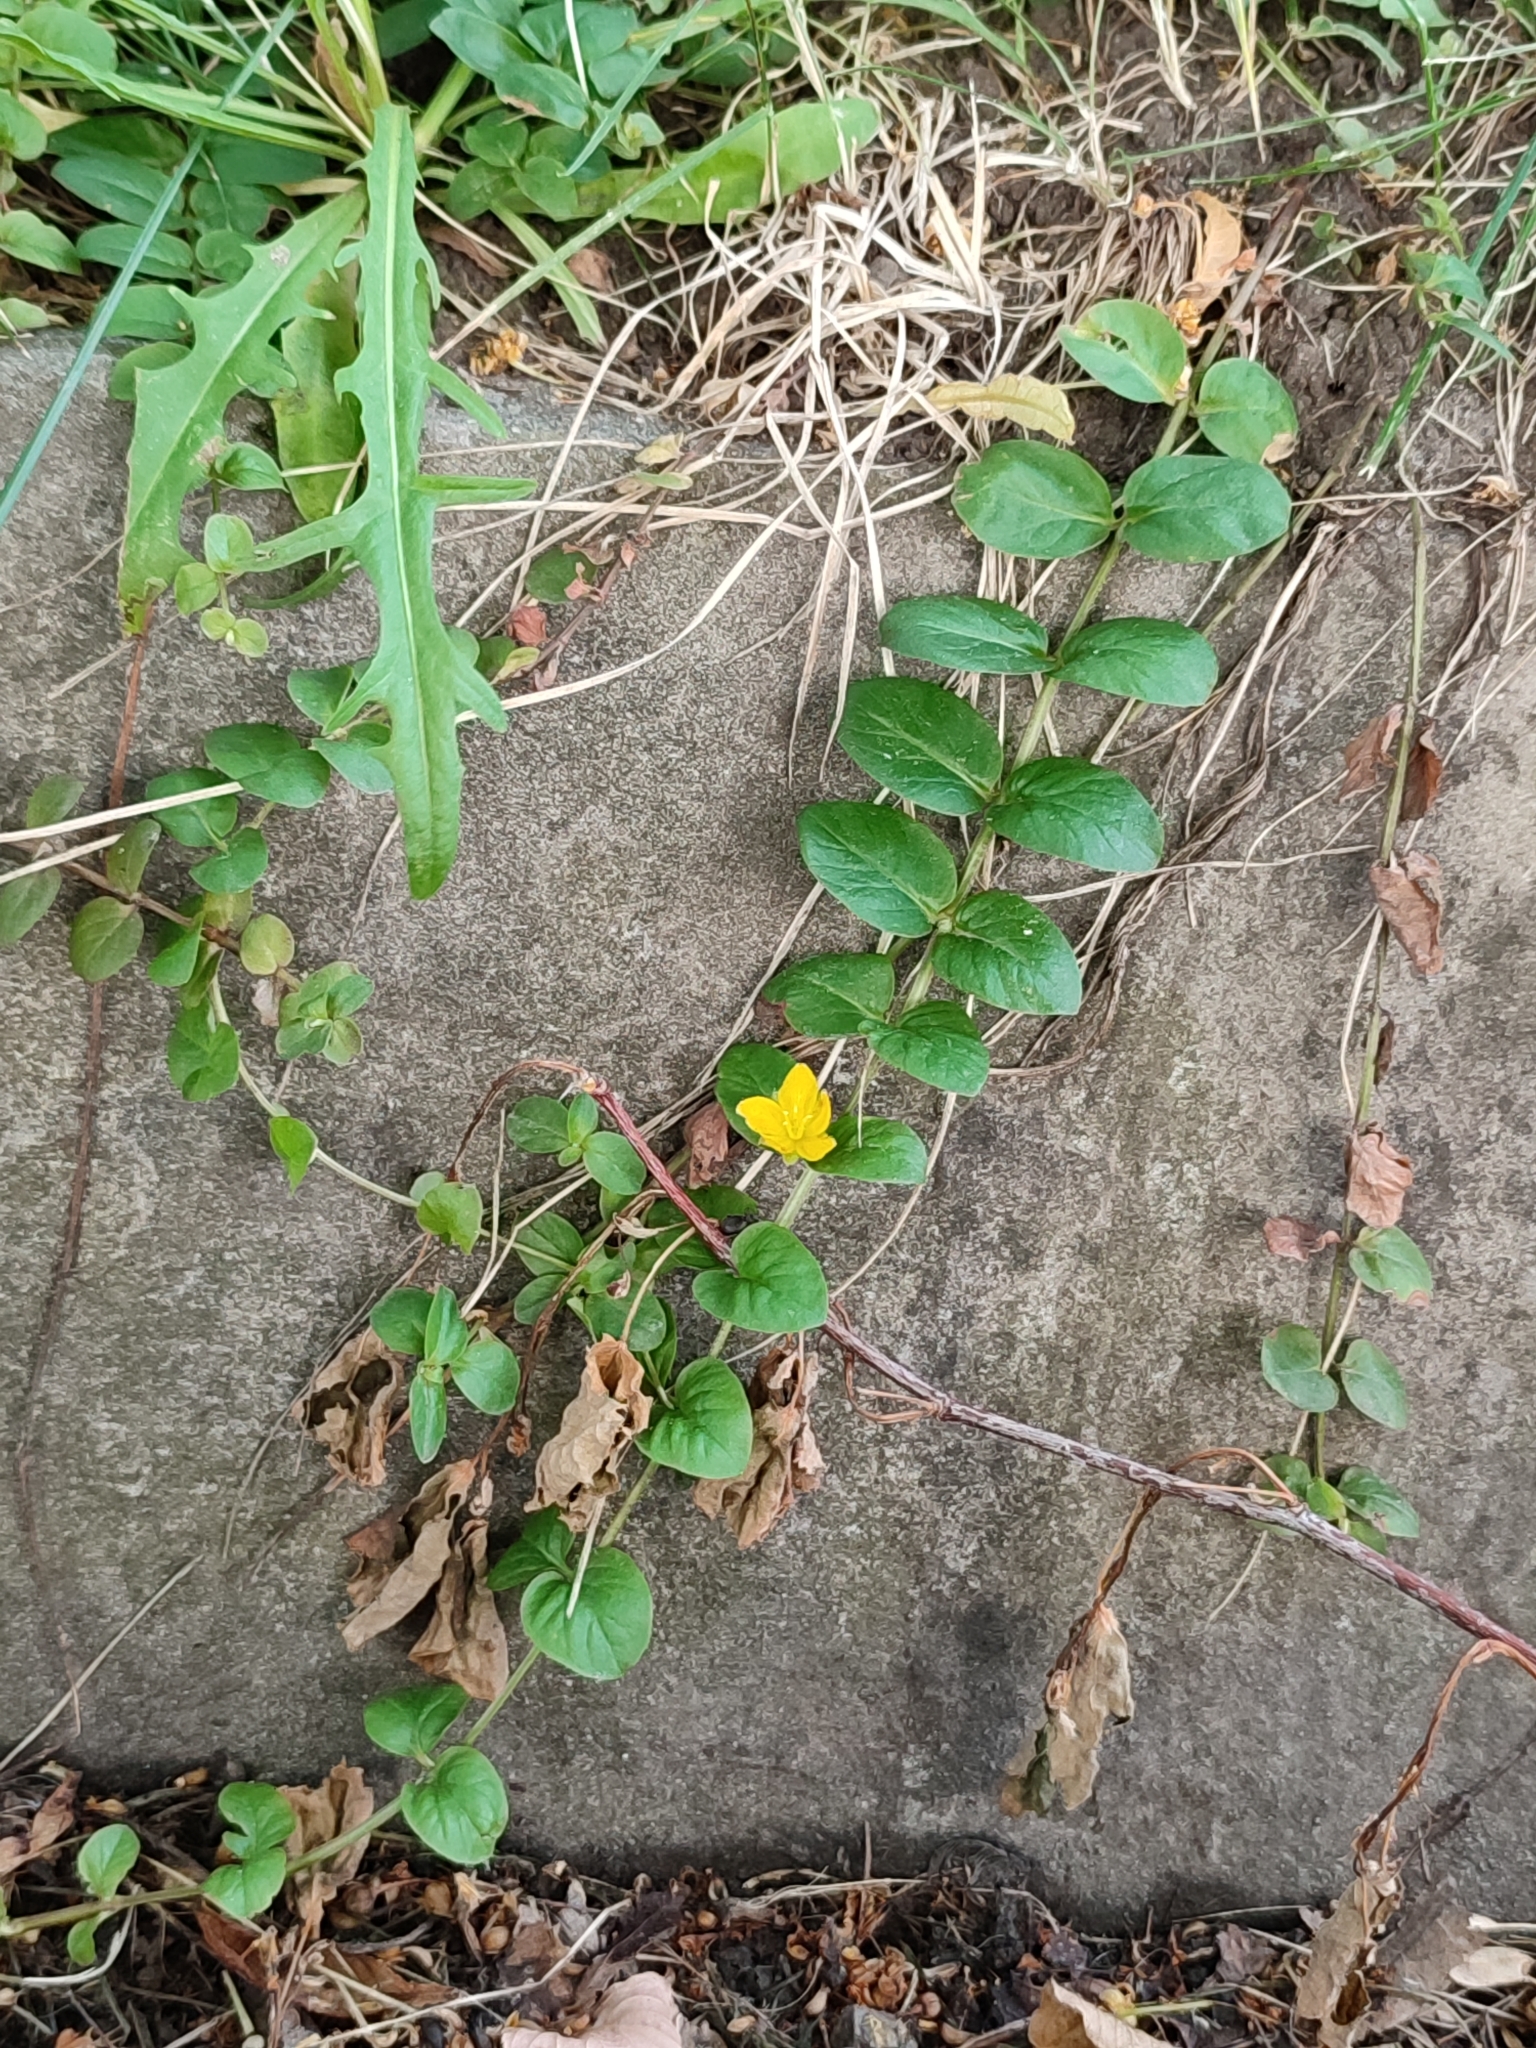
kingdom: Plantae
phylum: Tracheophyta
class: Magnoliopsida
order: Ericales
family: Primulaceae
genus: Lysimachia
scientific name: Lysimachia nummularia
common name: Moneywort
